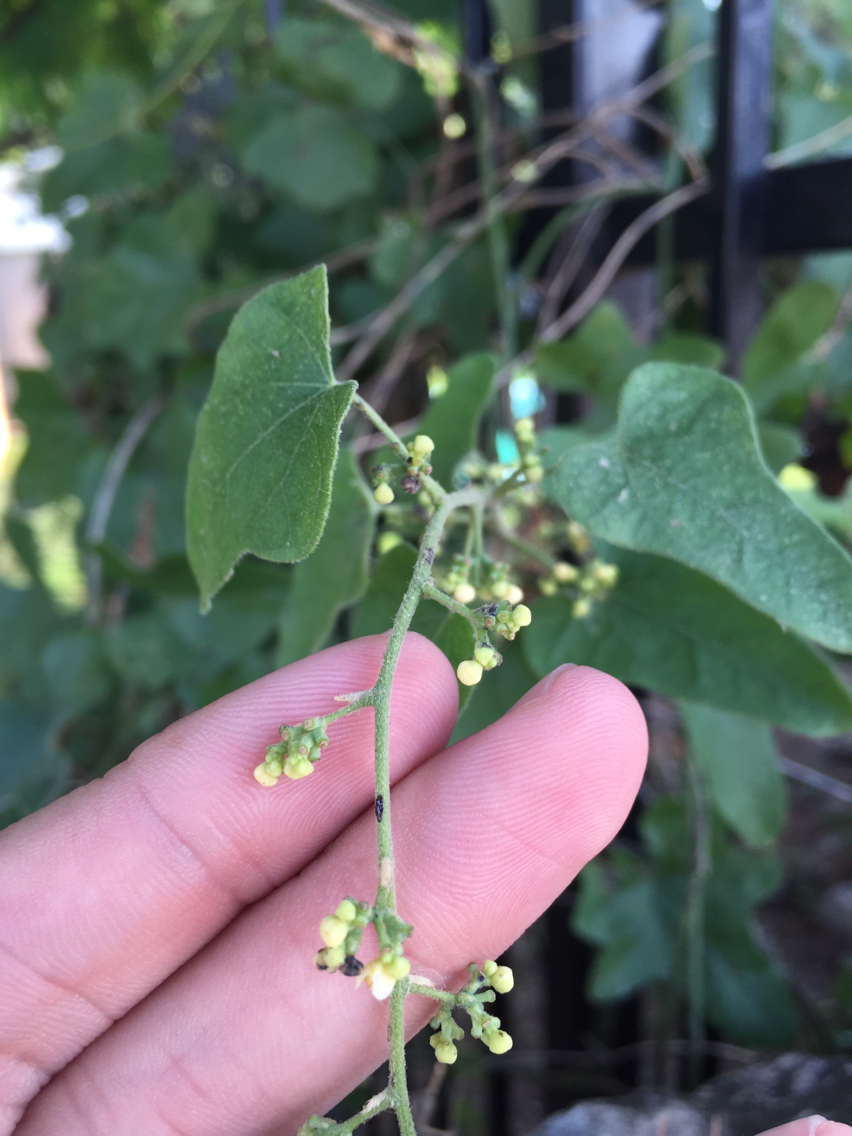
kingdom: Plantae
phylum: Tracheophyta
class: Magnoliopsida
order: Ranunculales
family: Menispermaceae
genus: Cocculus
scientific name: Cocculus carolinus
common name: Carolina moonseed
